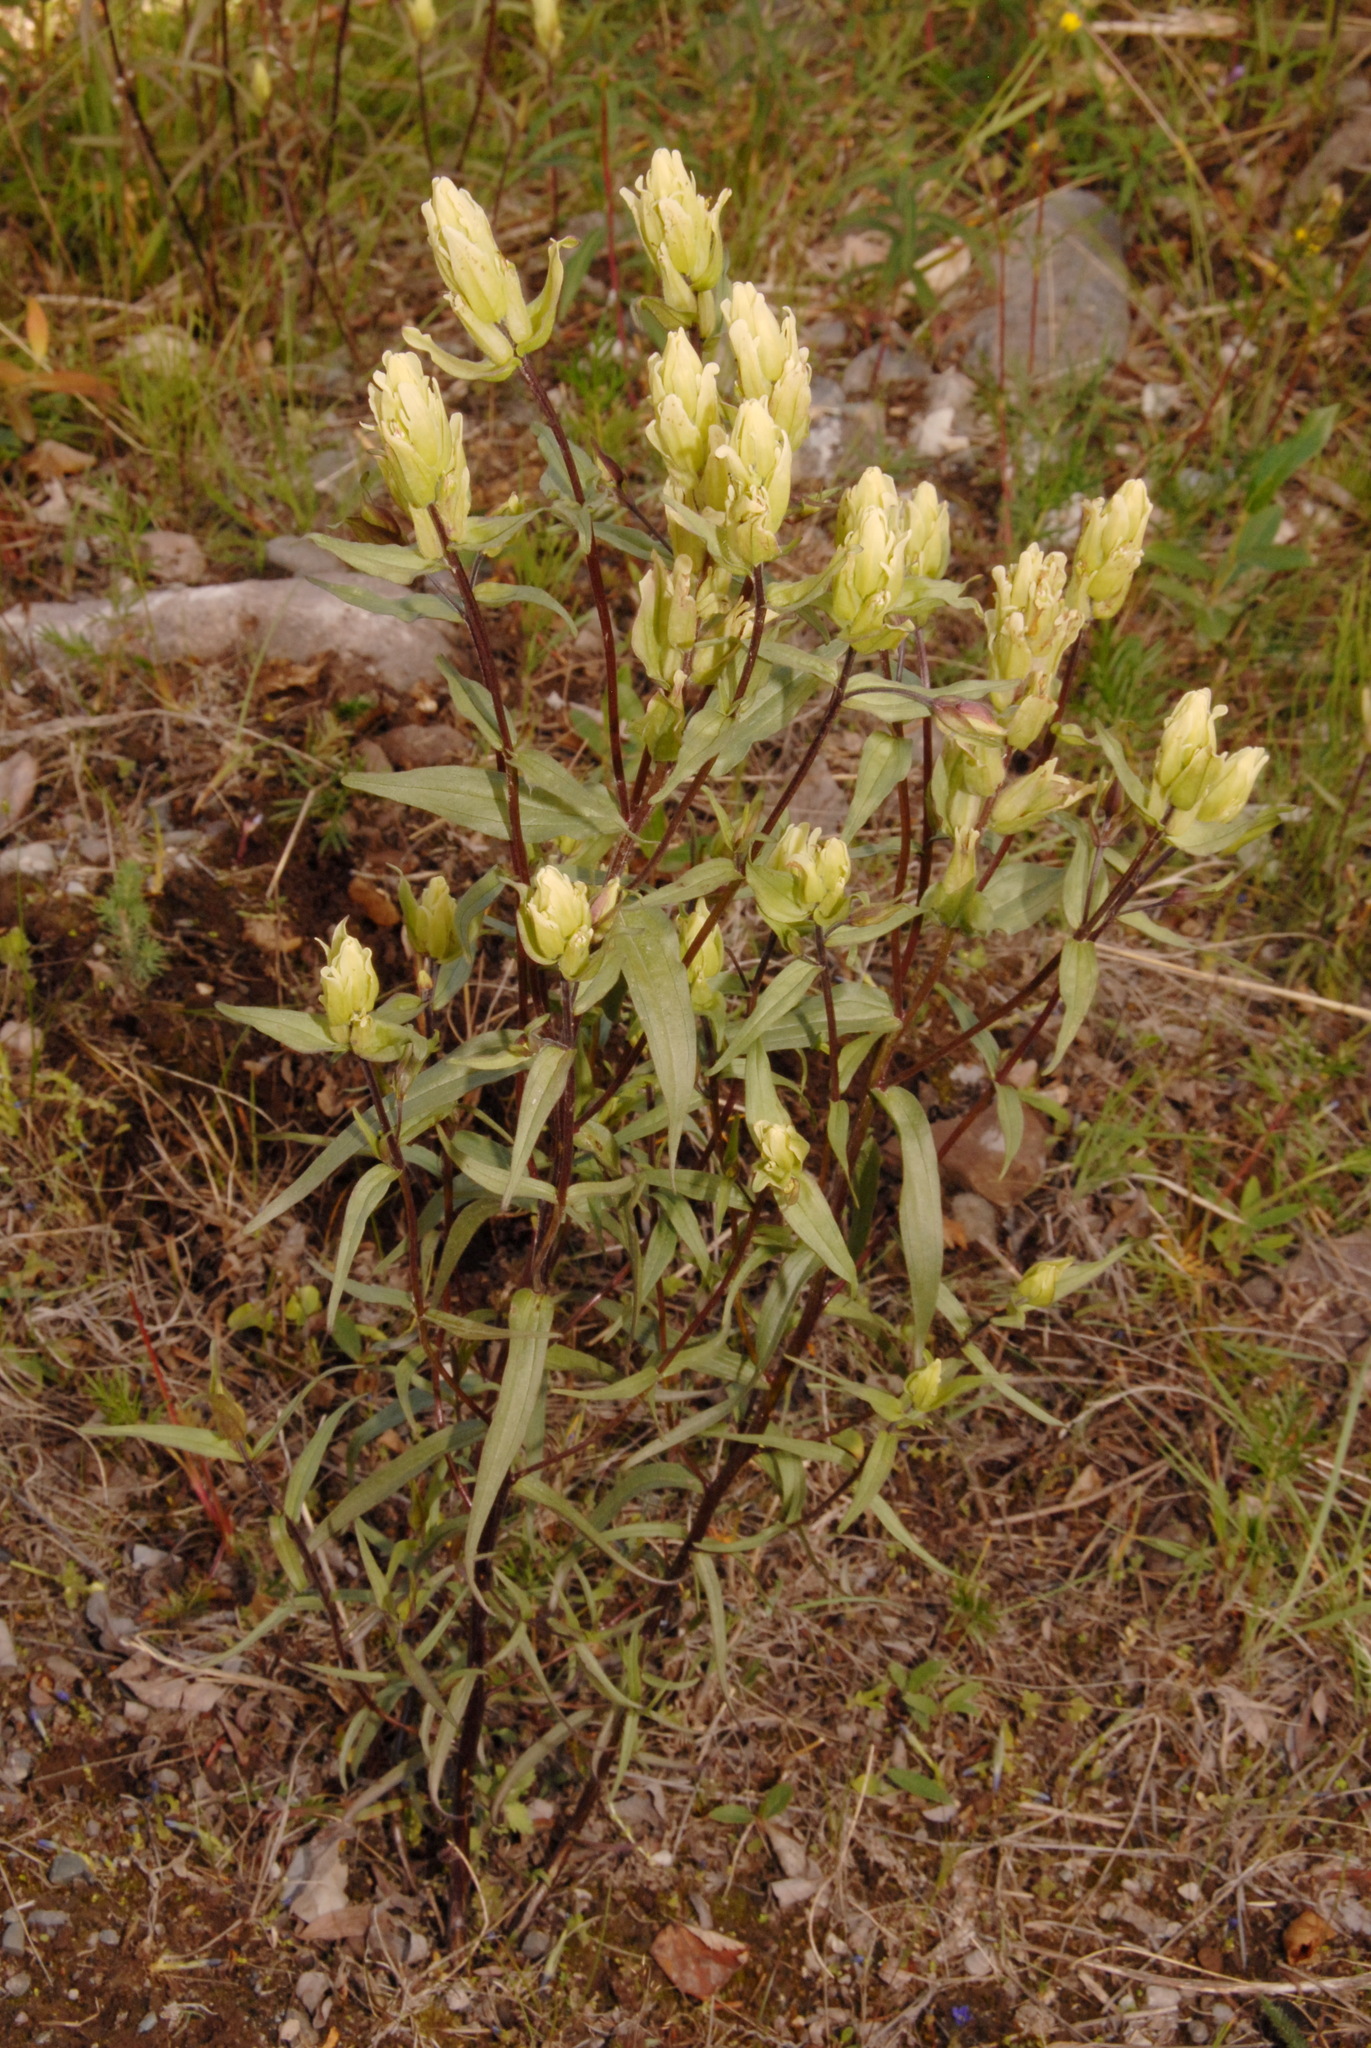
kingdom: Plantae
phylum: Tracheophyta
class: Magnoliopsida
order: Lamiales
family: Orobanchaceae
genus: Castilleja
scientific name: Castilleja pallida
